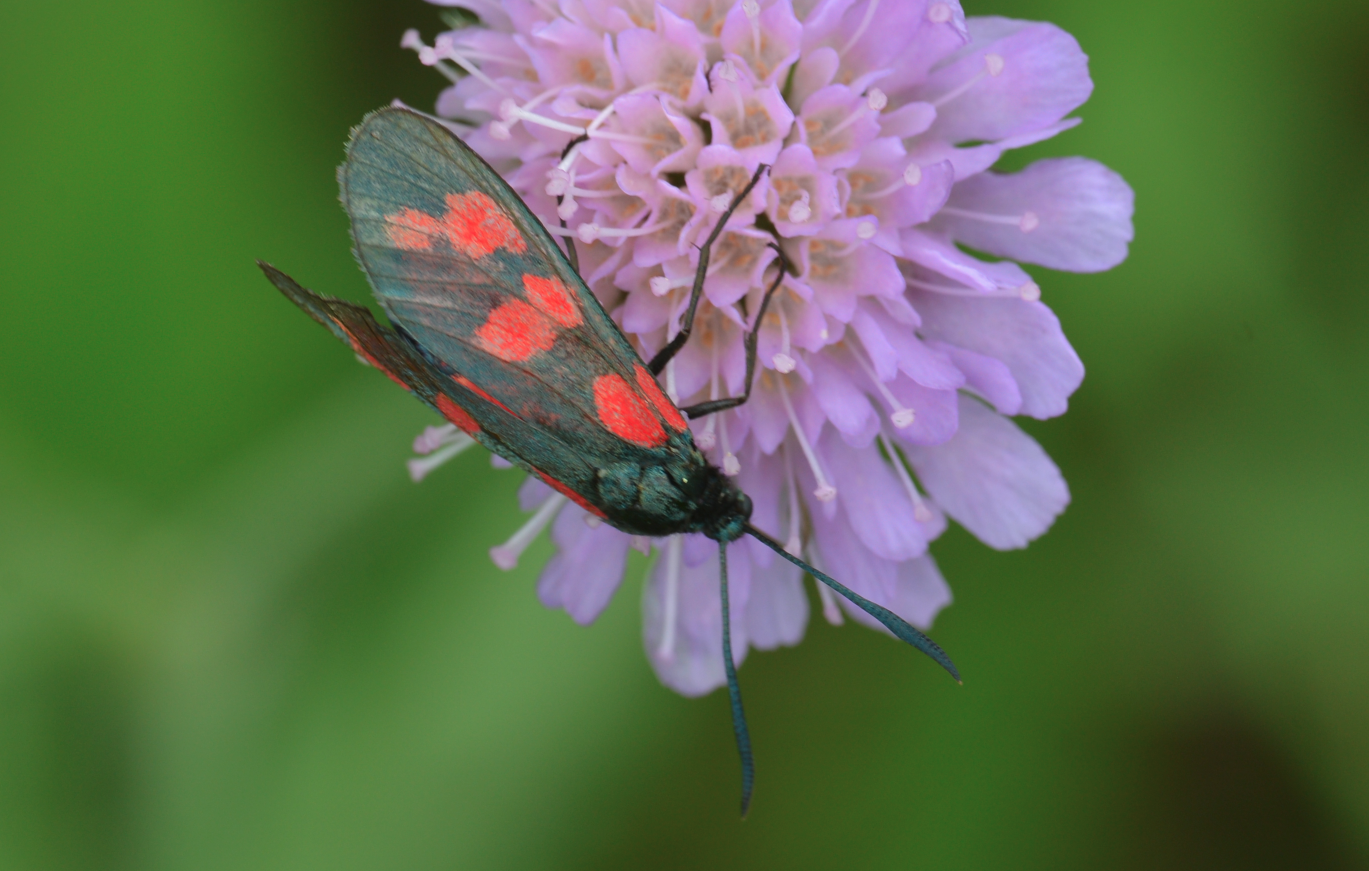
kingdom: Animalia
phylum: Arthropoda
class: Insecta
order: Lepidoptera
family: Zygaenidae
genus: Zygaena
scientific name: Zygaena filipendulae
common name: Six-spot burnet
